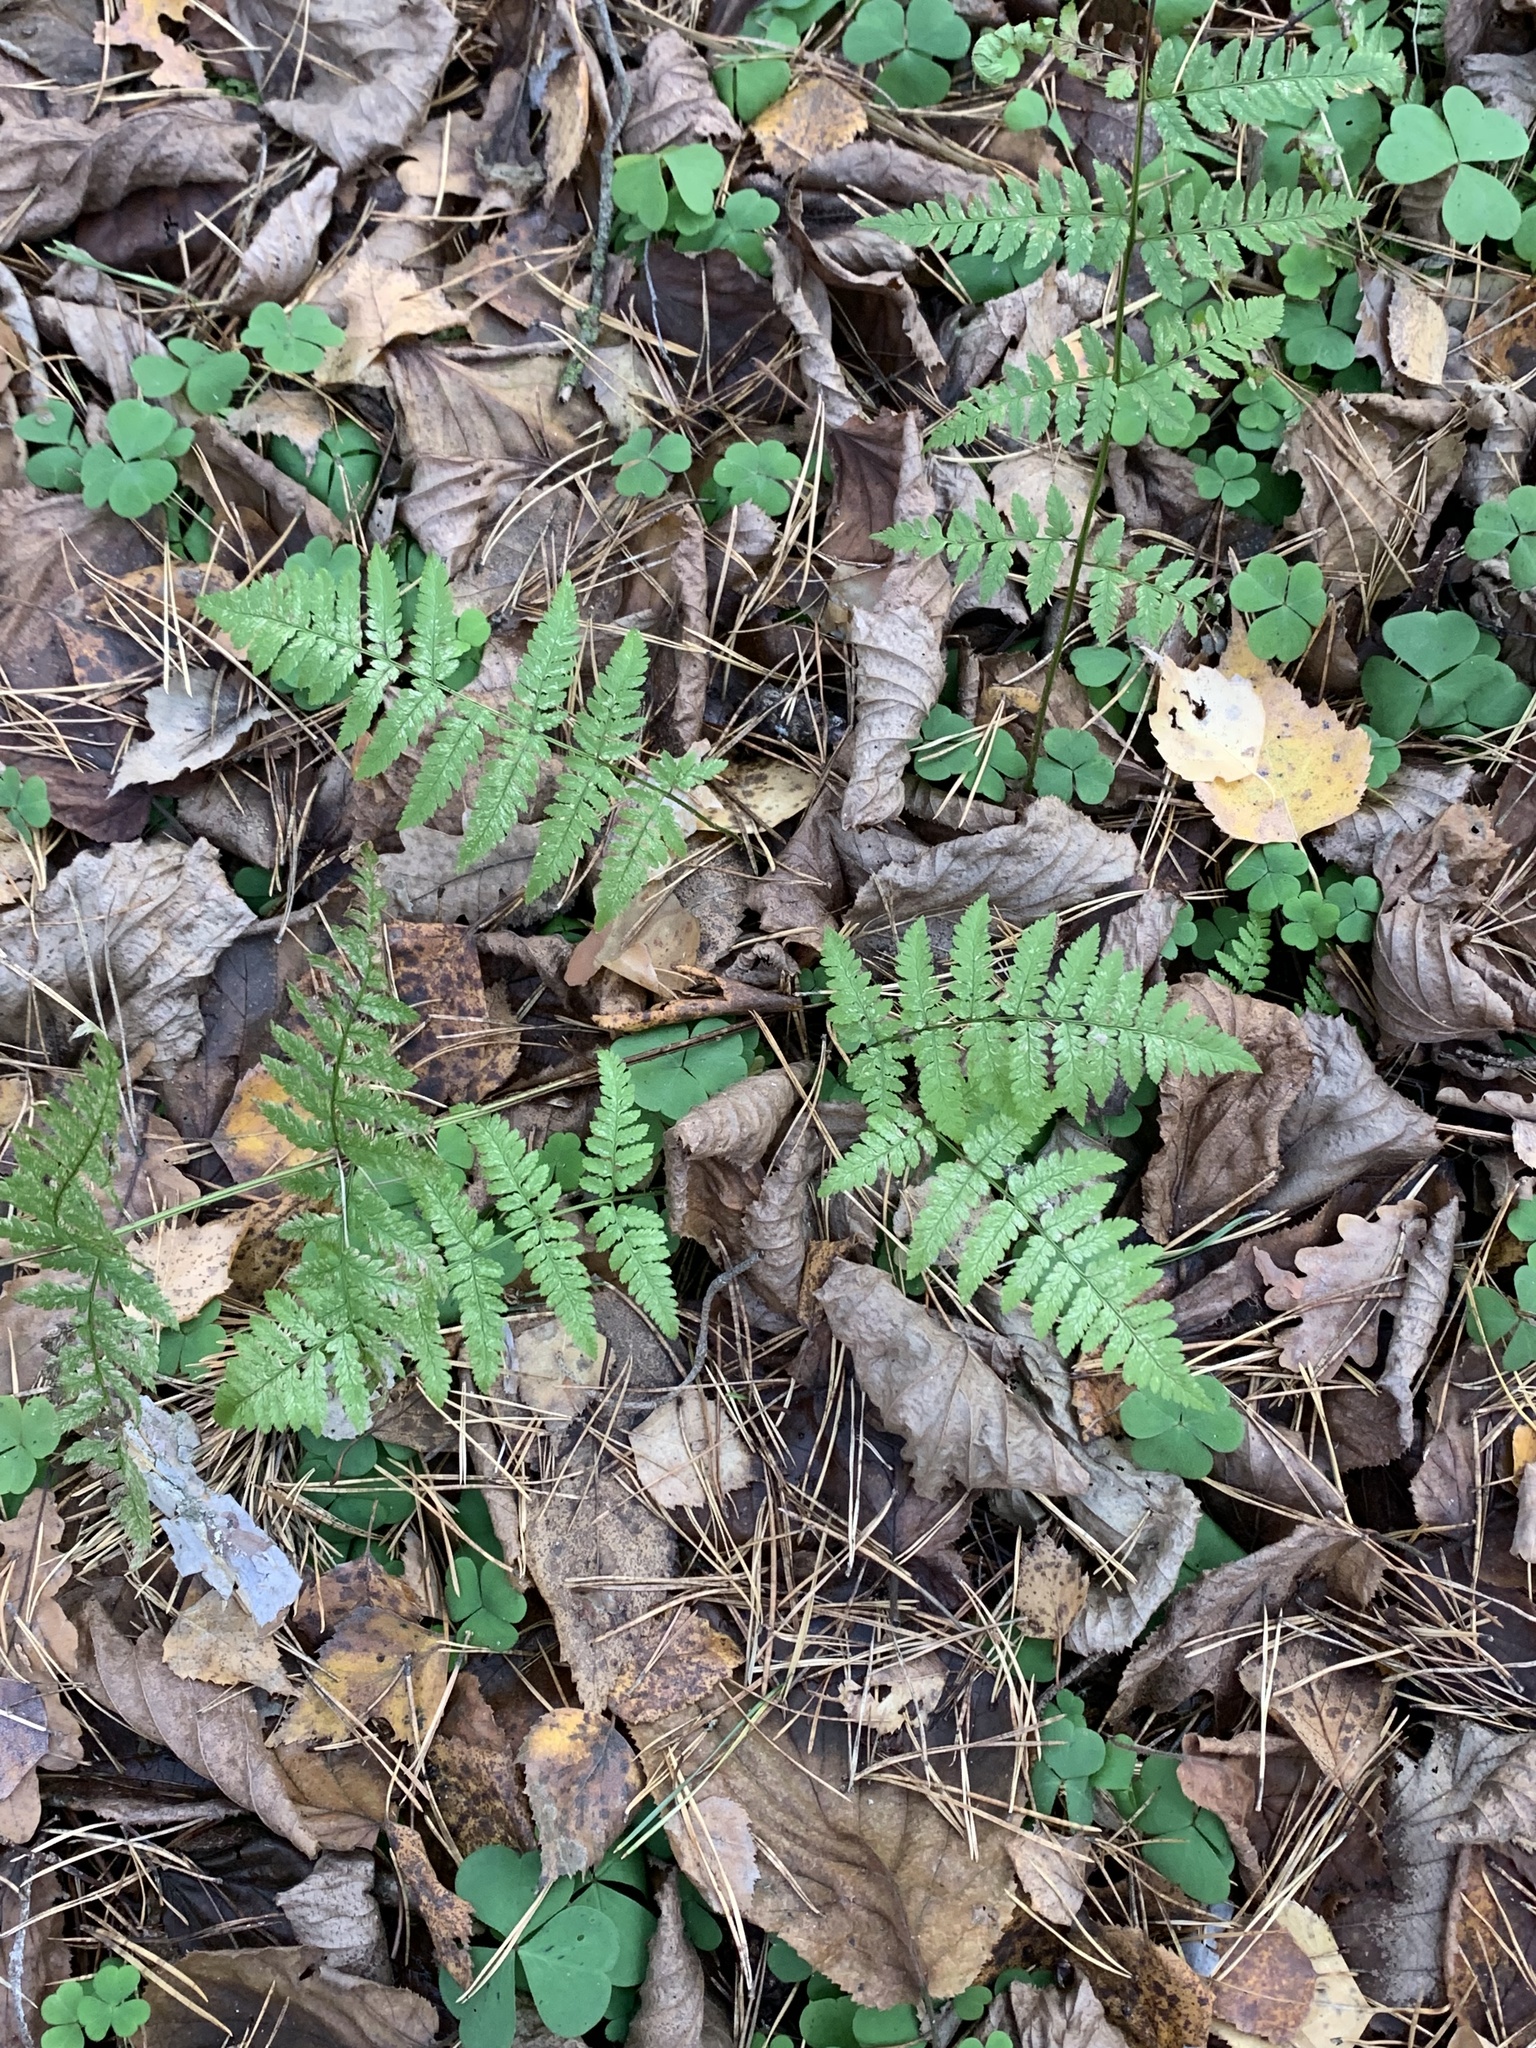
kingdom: Plantae
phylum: Tracheophyta
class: Polypodiopsida
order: Polypodiales
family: Dryopteridaceae
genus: Dryopteris
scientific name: Dryopteris carthusiana
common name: Narrow buckler-fern
